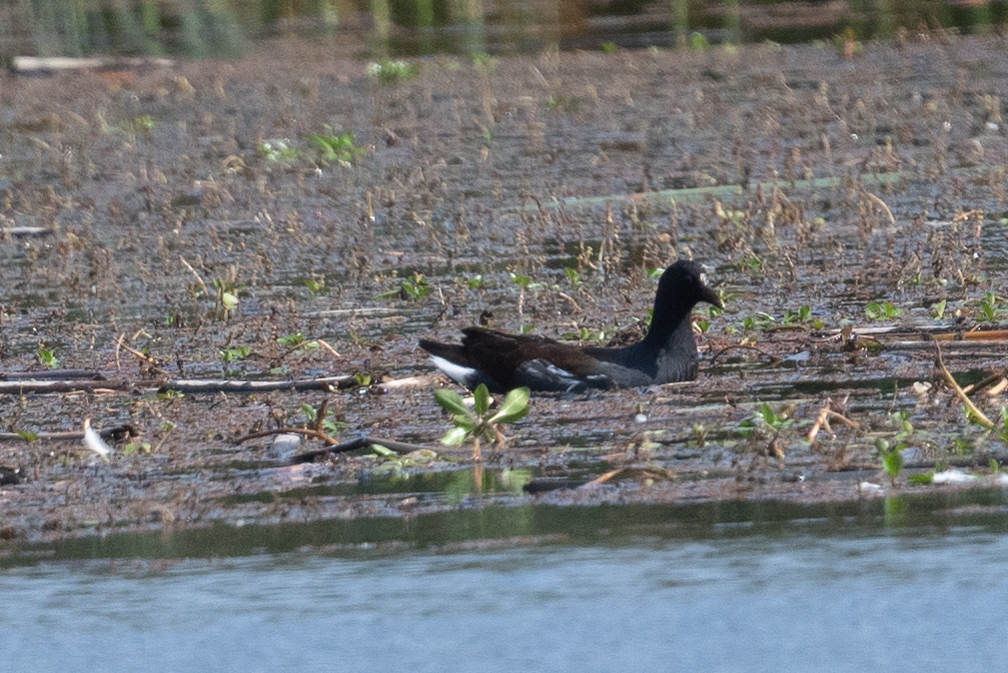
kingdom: Animalia
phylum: Chordata
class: Aves
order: Gruiformes
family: Rallidae
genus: Gallinula
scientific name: Gallinula chloropus
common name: Common moorhen
